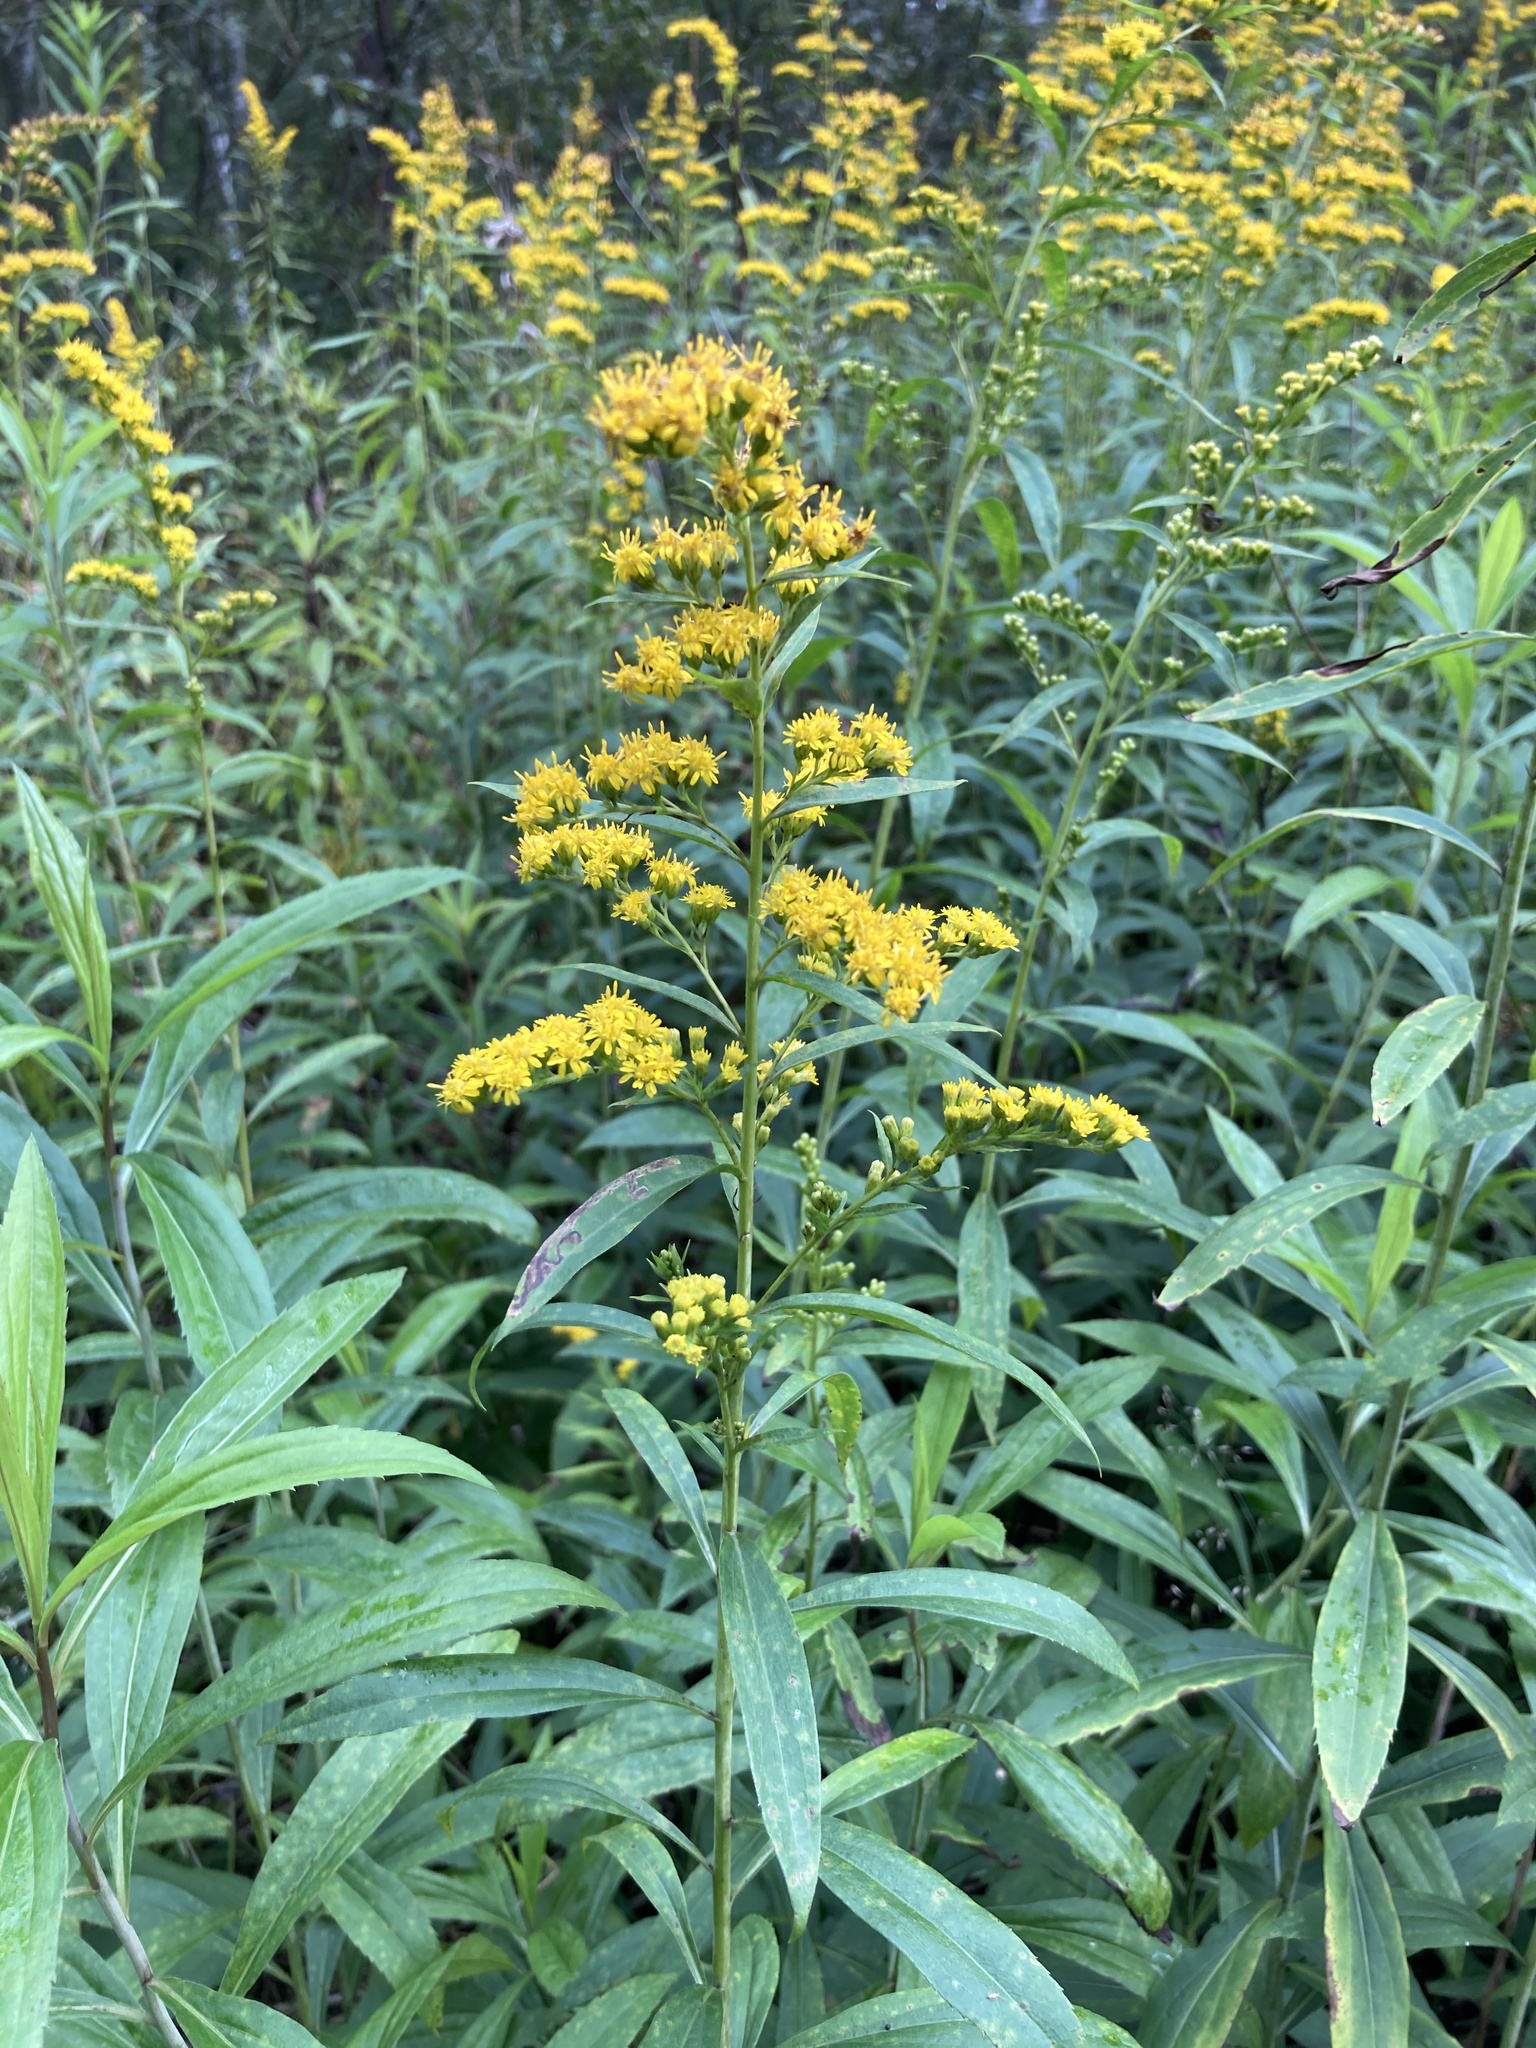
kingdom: Plantae
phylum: Tracheophyta
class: Magnoliopsida
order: Asterales
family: Asteraceae
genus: Solidago
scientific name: Solidago gigantea
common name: Giant goldenrod
